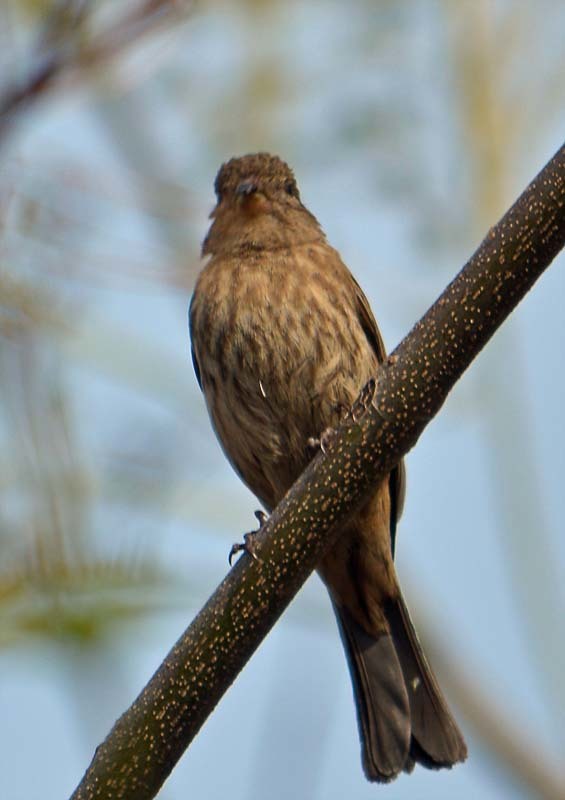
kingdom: Animalia
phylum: Chordata
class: Aves
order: Passeriformes
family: Fringillidae
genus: Haemorhous
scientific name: Haemorhous mexicanus
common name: House finch
